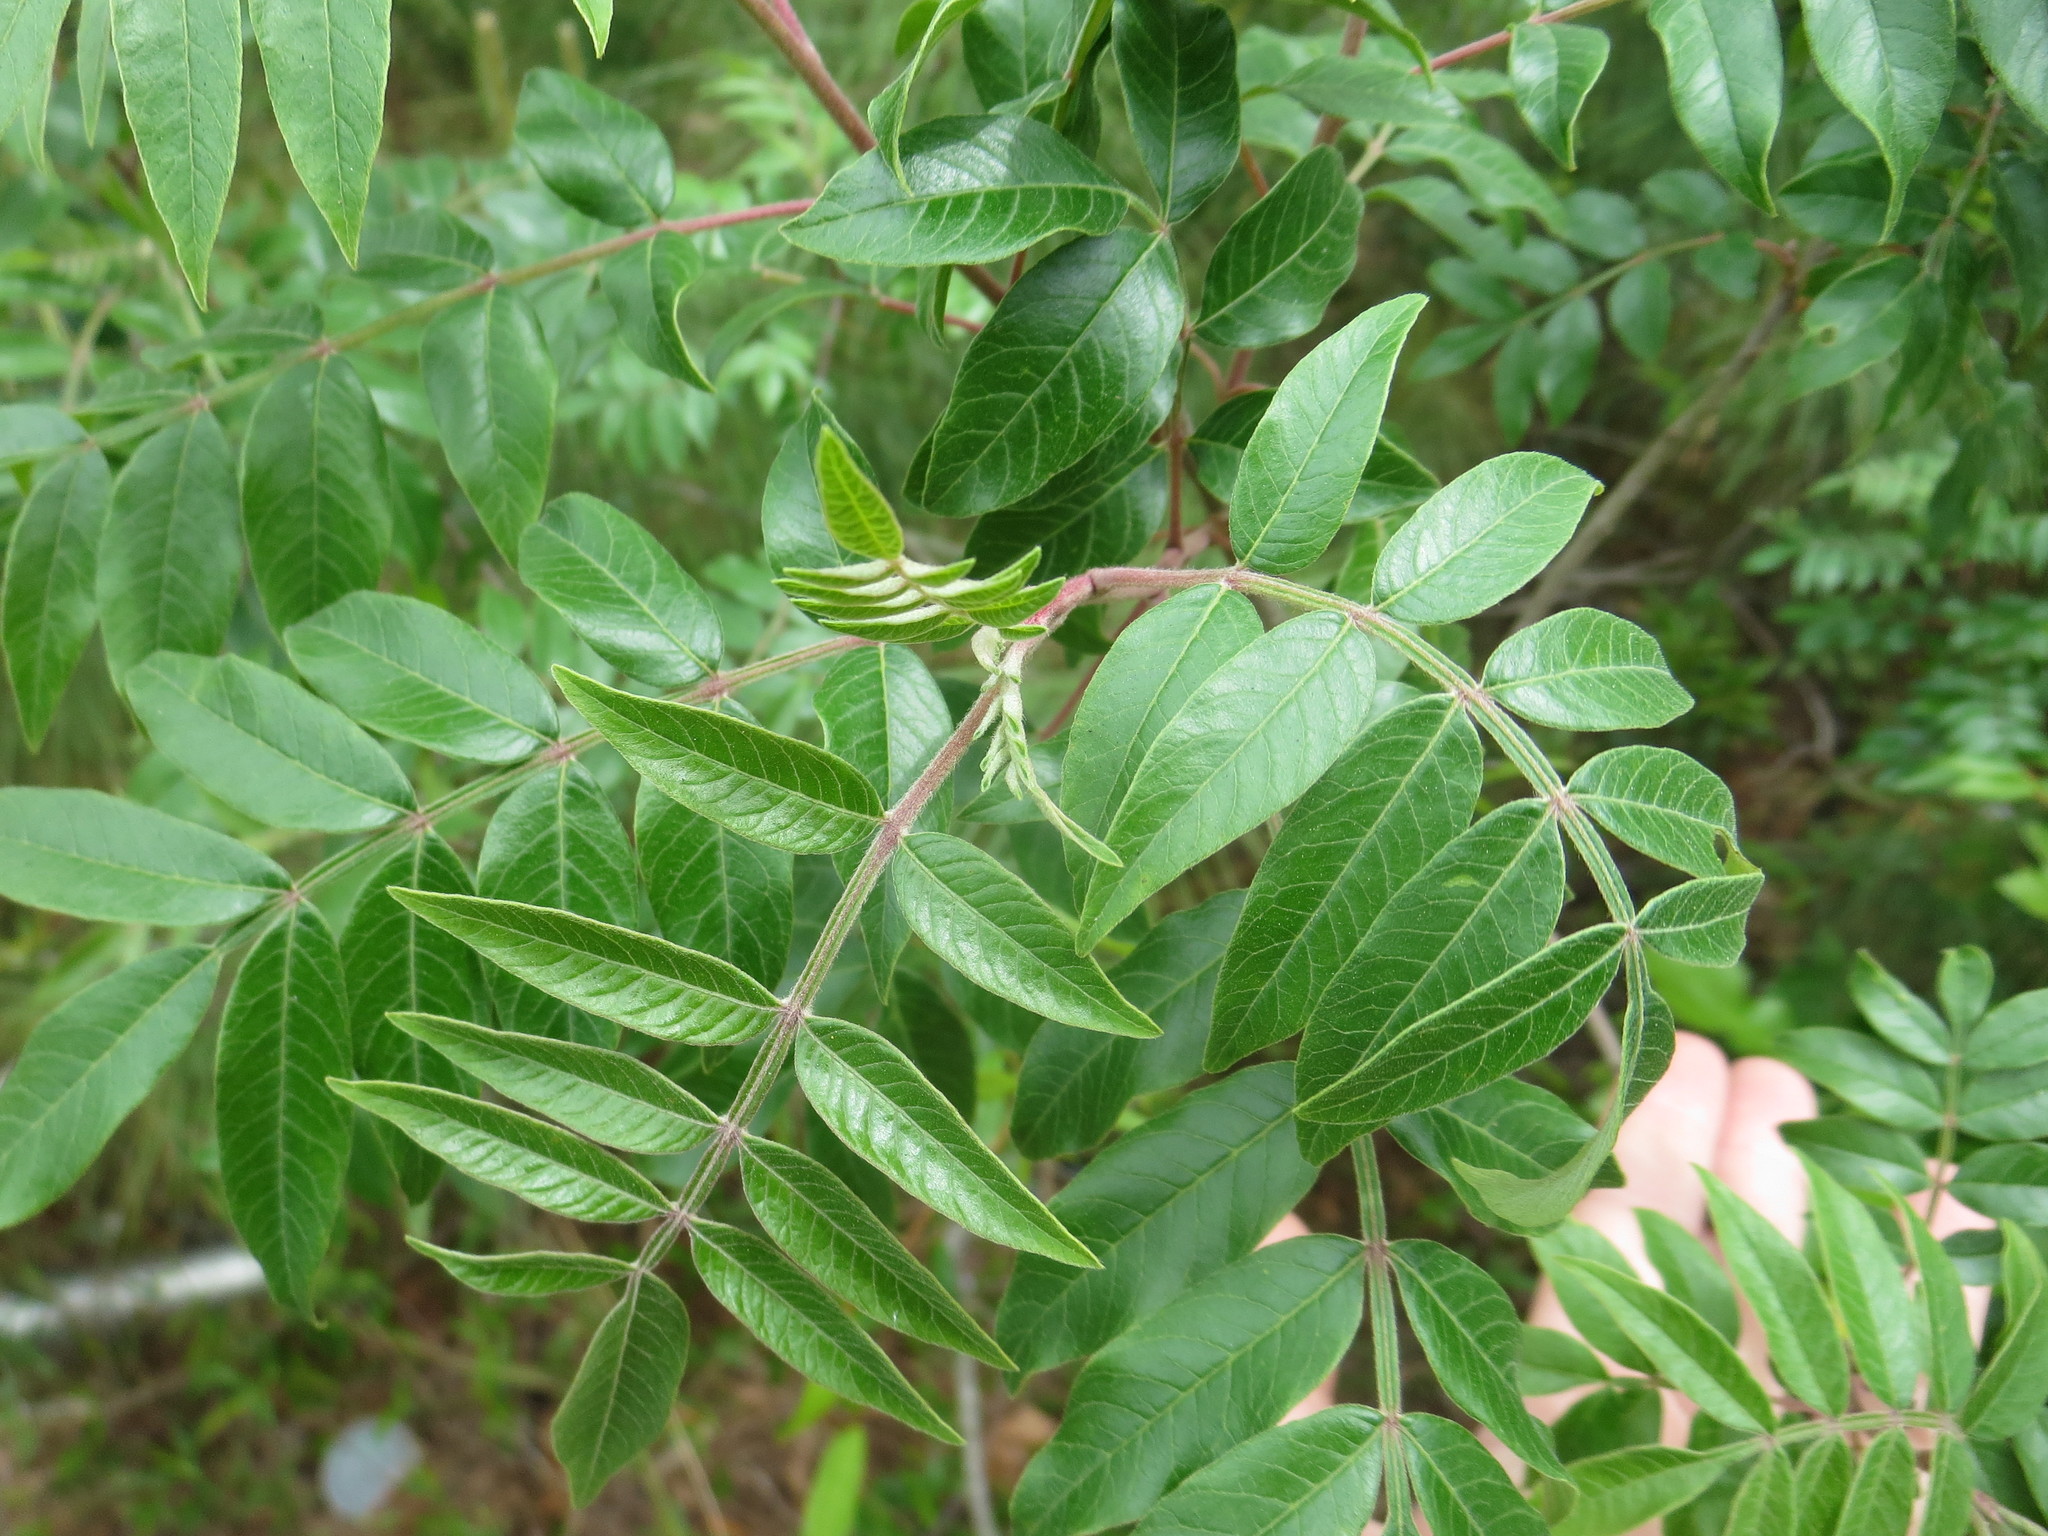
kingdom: Plantae
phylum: Tracheophyta
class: Magnoliopsida
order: Sapindales
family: Anacardiaceae
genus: Rhus
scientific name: Rhus copallina
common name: Shining sumac
